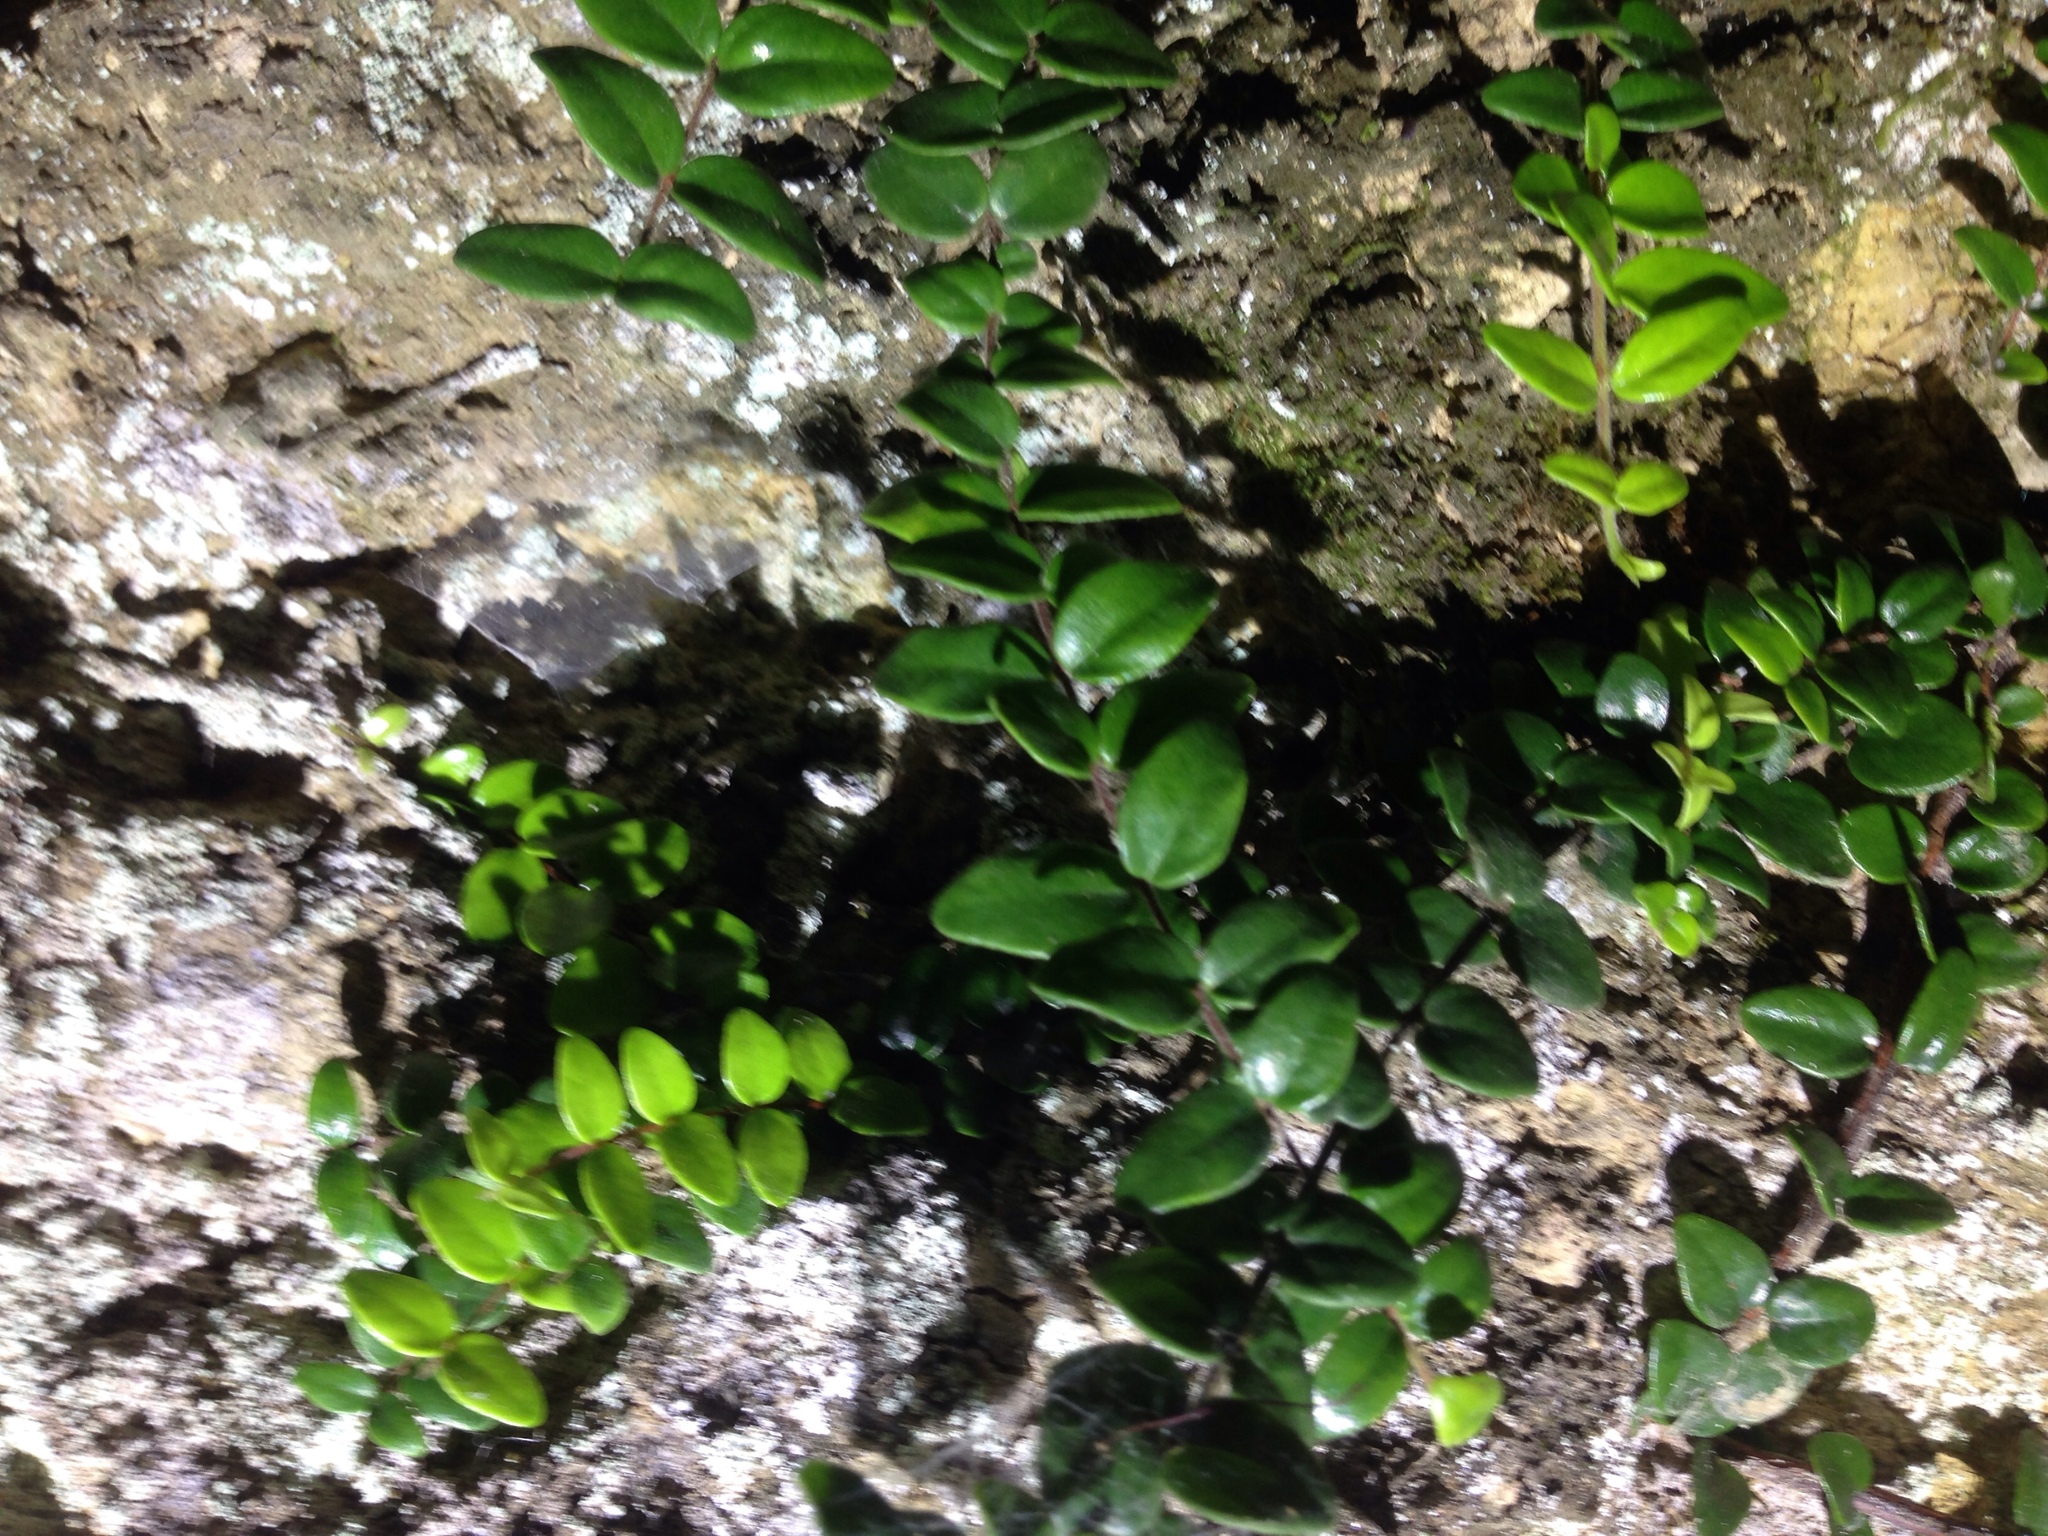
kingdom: Plantae
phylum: Tracheophyta
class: Magnoliopsida
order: Myrtales
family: Myrtaceae
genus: Metrosideros
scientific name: Metrosideros diffusa
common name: Small ratavine
